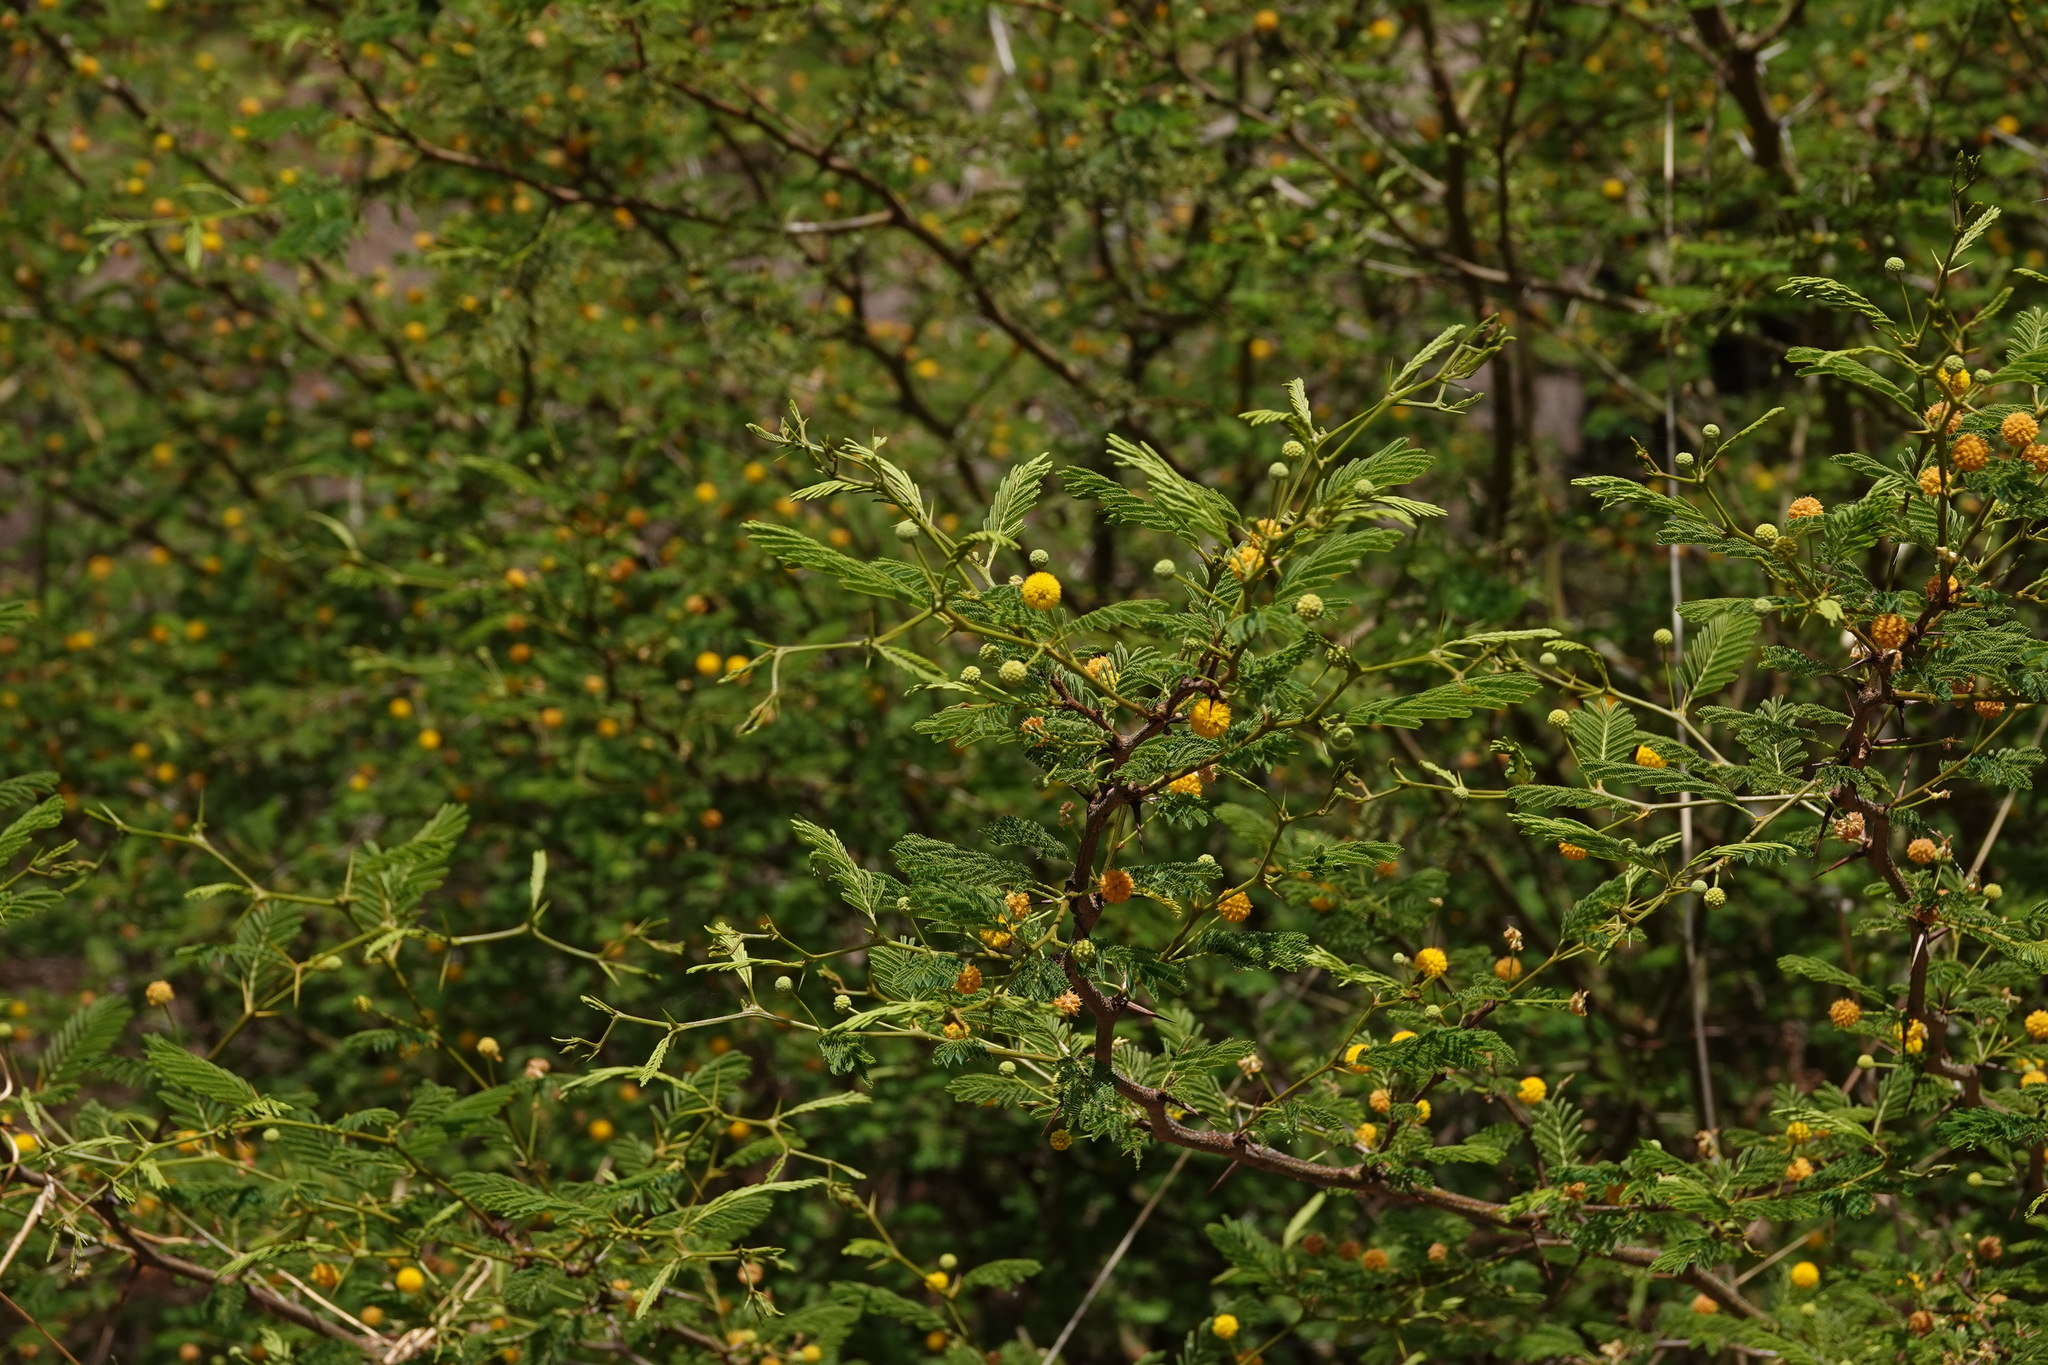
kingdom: Plantae
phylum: Tracheophyta
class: Magnoliopsida
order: Fabales
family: Fabaceae
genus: Vachellia
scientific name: Vachellia macracantha
